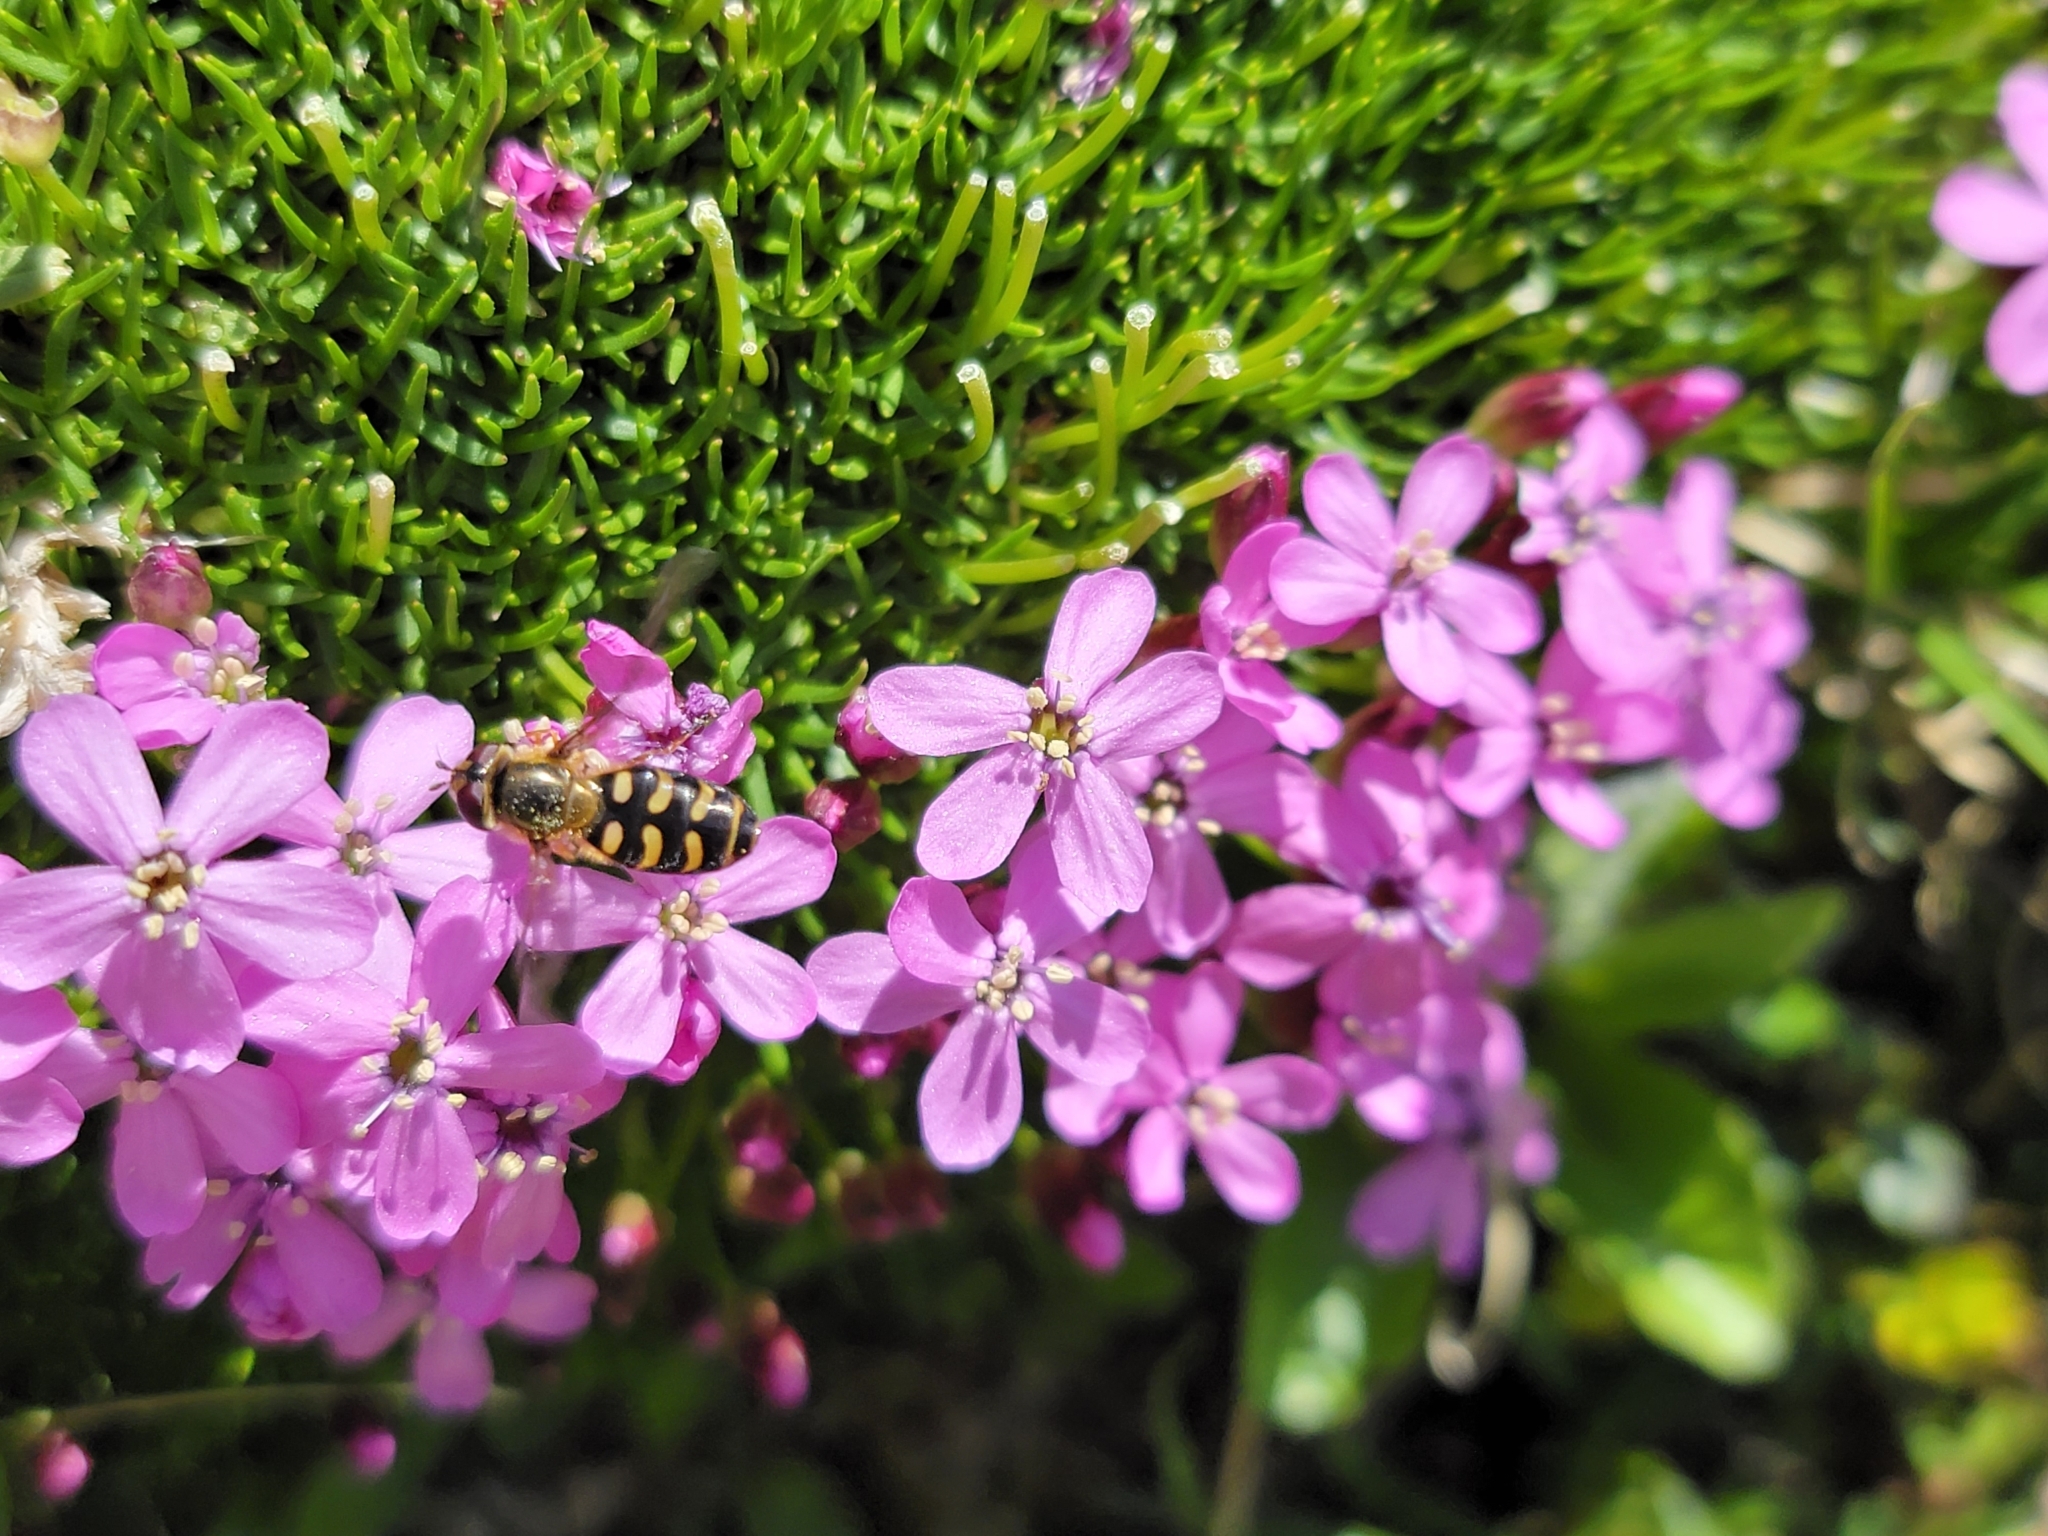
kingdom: Plantae
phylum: Tracheophyta
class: Magnoliopsida
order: Caryophyllales
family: Caryophyllaceae
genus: Silene
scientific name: Silene acaulis
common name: Moss campion
